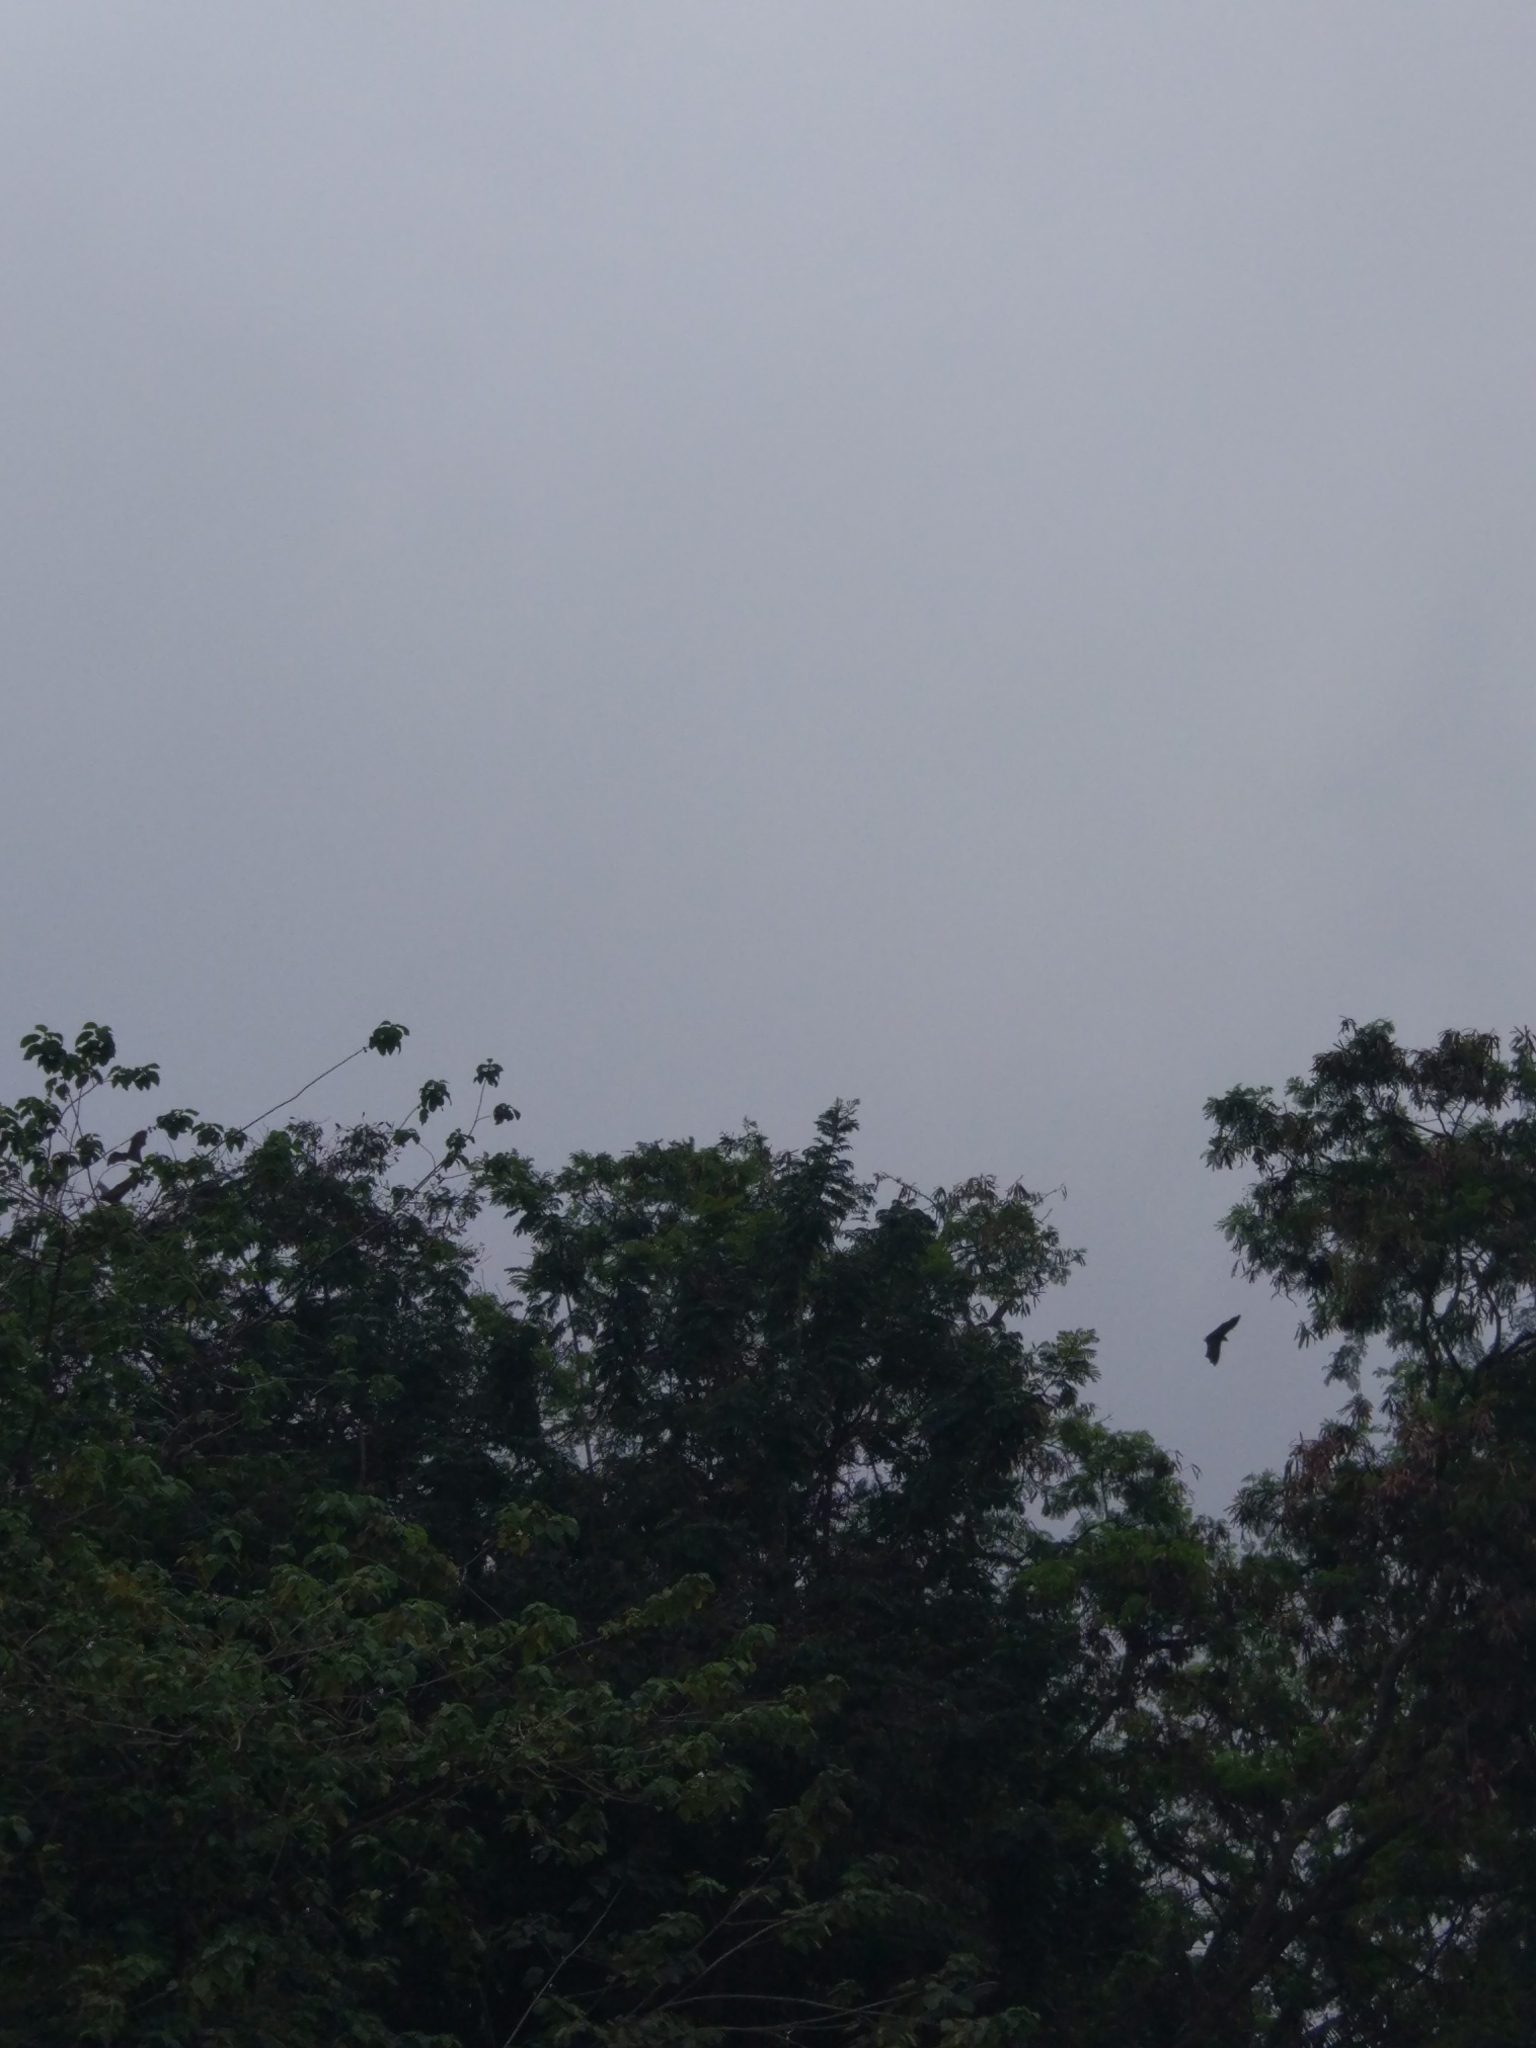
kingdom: Animalia
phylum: Chordata
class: Mammalia
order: Chiroptera
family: Pteropodidae
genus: Pteropus
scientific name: Pteropus vampyrus
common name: Large flying fox
